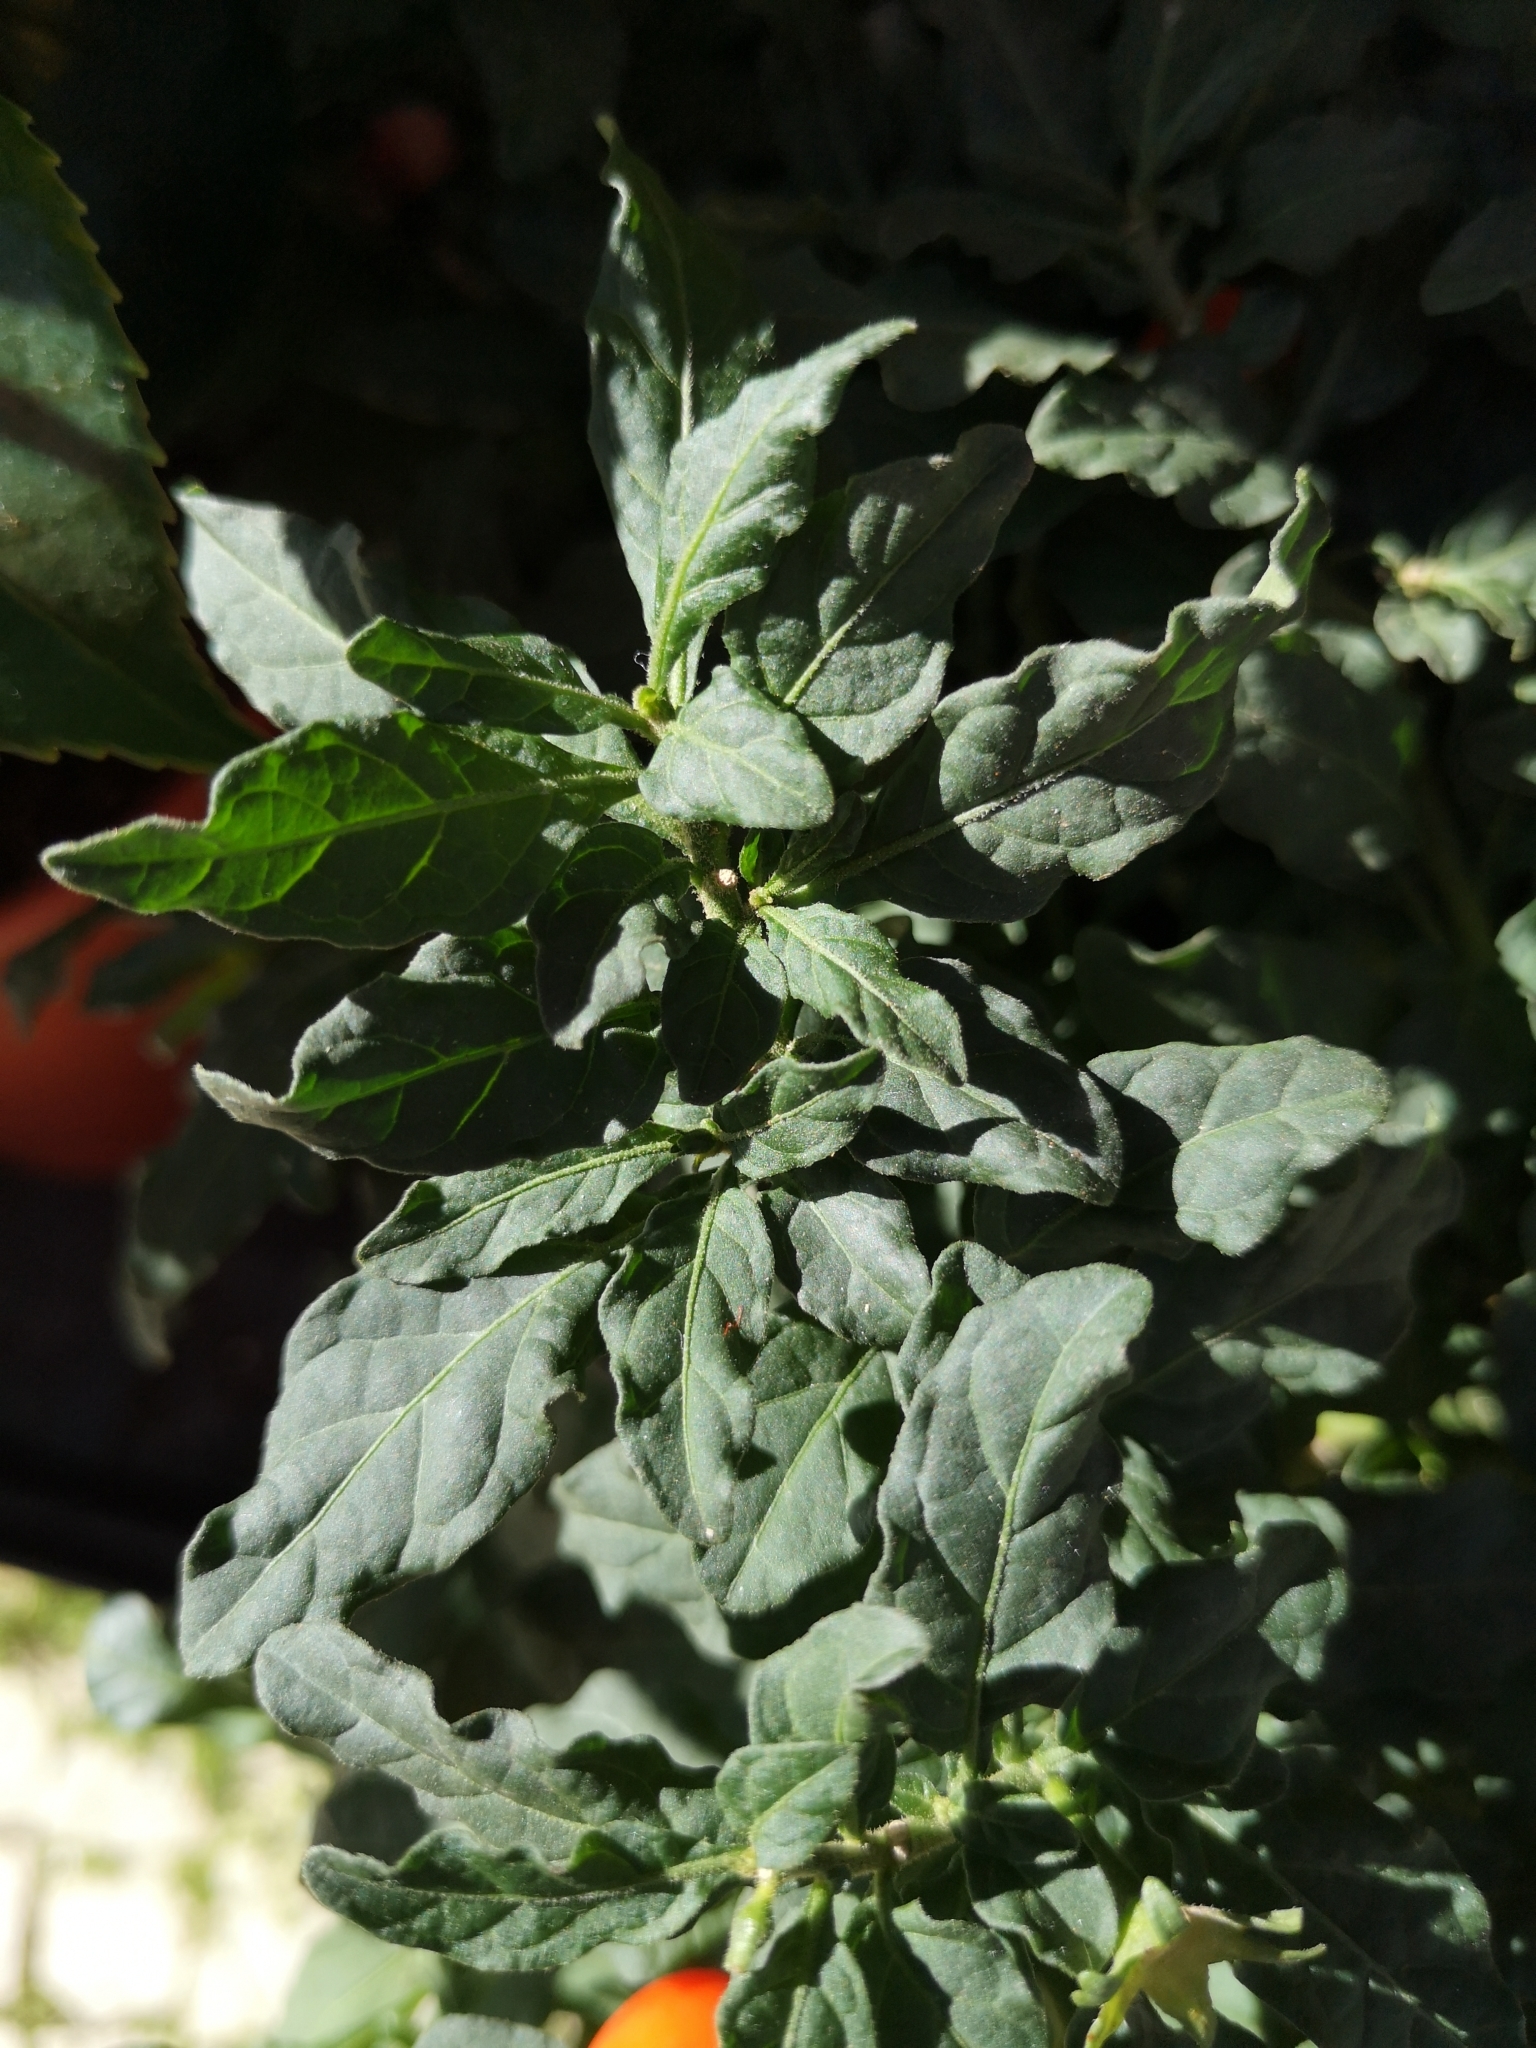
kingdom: Plantae
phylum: Tracheophyta
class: Magnoliopsida
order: Solanales
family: Solanaceae
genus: Solanum
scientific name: Solanum pseudocapsicum
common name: Jerusalem cherry
